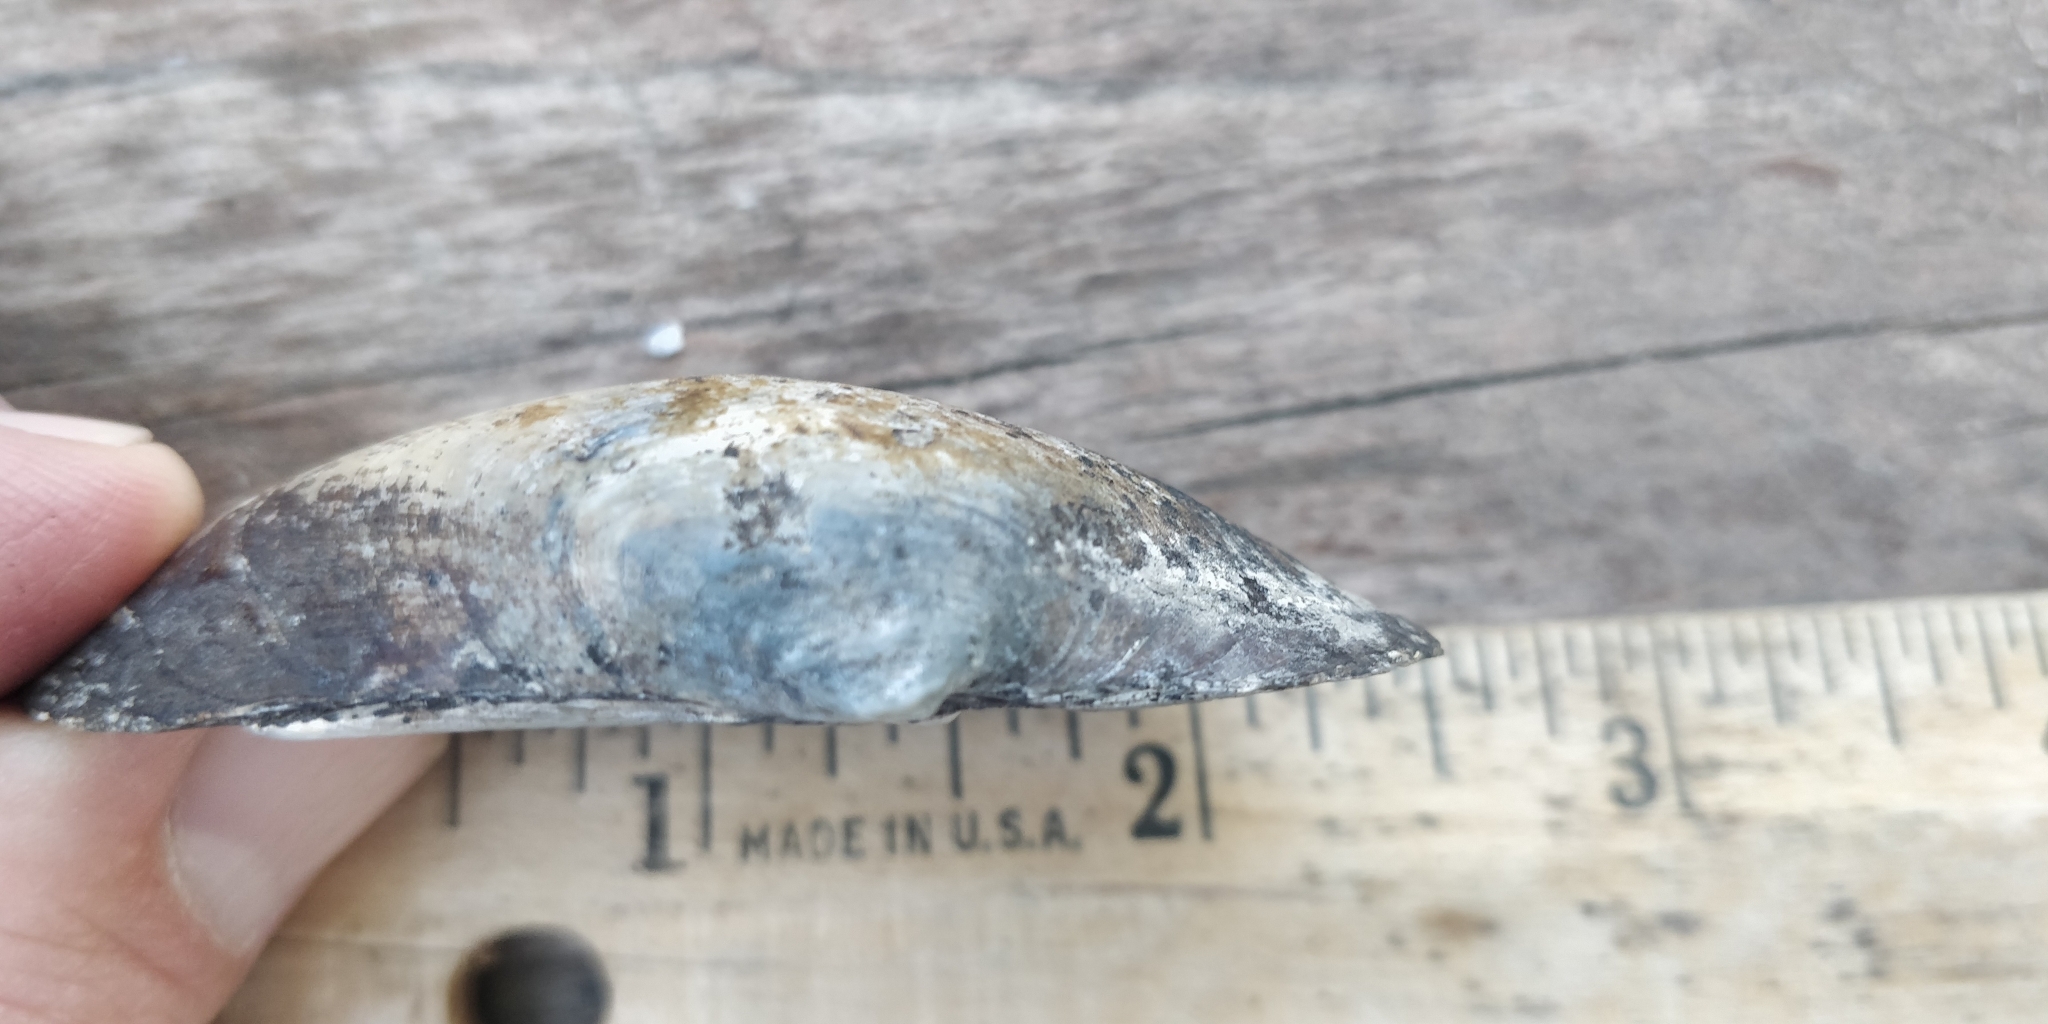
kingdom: Animalia
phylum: Mollusca
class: Bivalvia
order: Unionida
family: Unionidae
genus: Strophitus
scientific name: Strophitus undulatus
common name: Creeper
